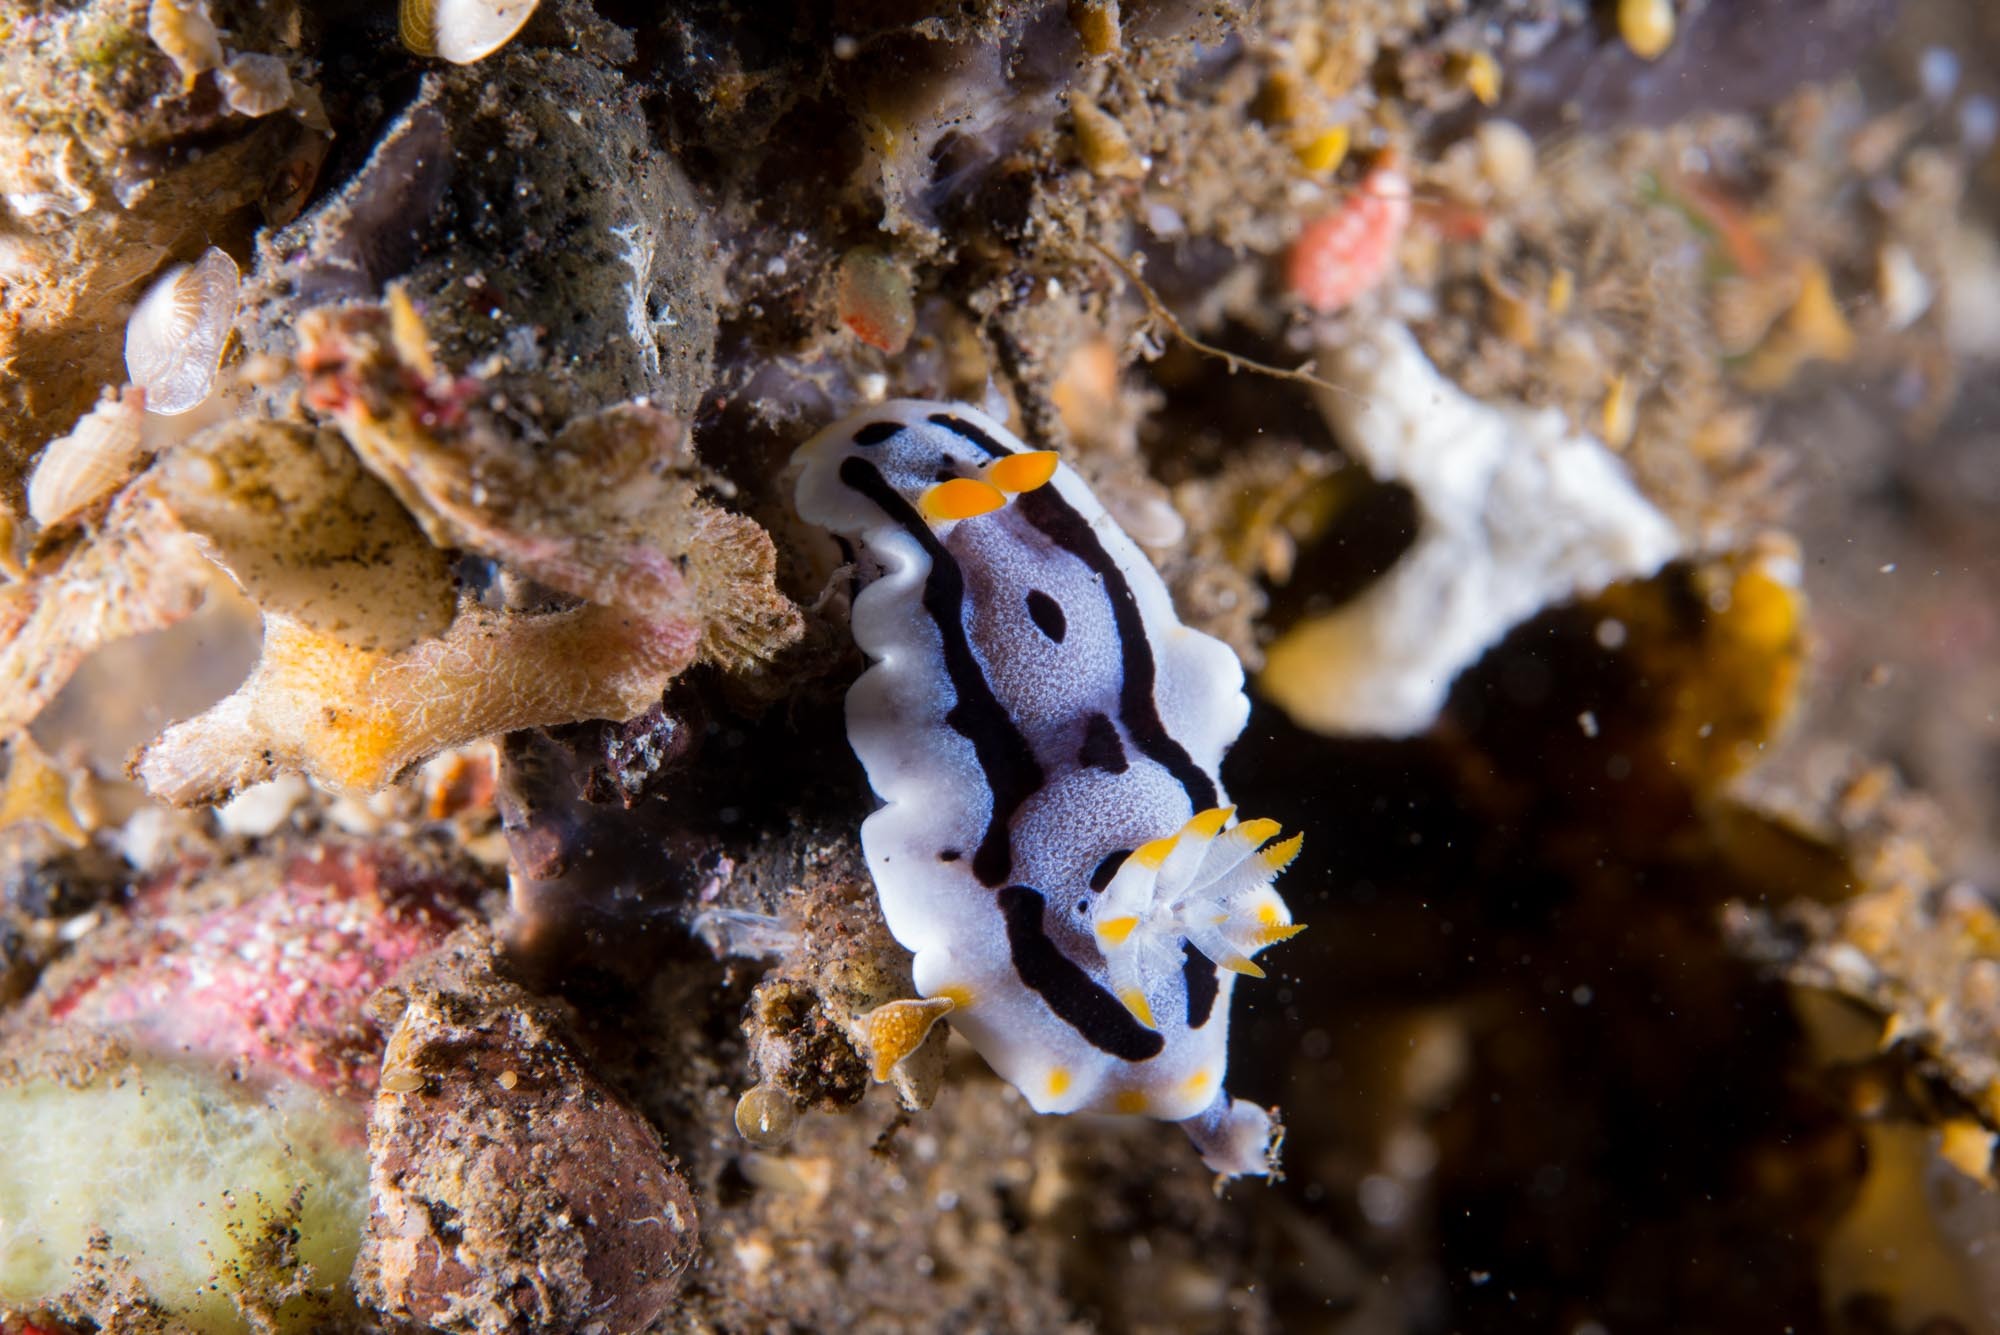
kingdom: Animalia
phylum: Mollusca
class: Gastropoda
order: Nudibranchia
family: Chromodorididae
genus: Chromodoris
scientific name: Chromodoris michaeli
